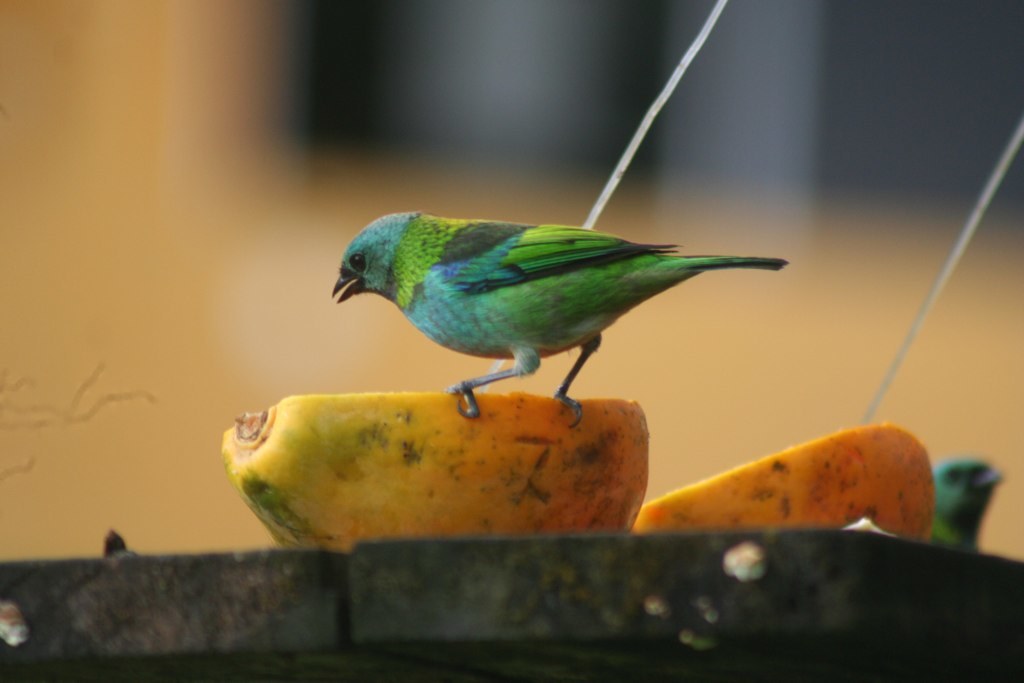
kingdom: Animalia
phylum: Chordata
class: Aves
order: Passeriformes
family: Thraupidae
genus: Tangara
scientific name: Tangara seledon
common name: Green-headed tanager
